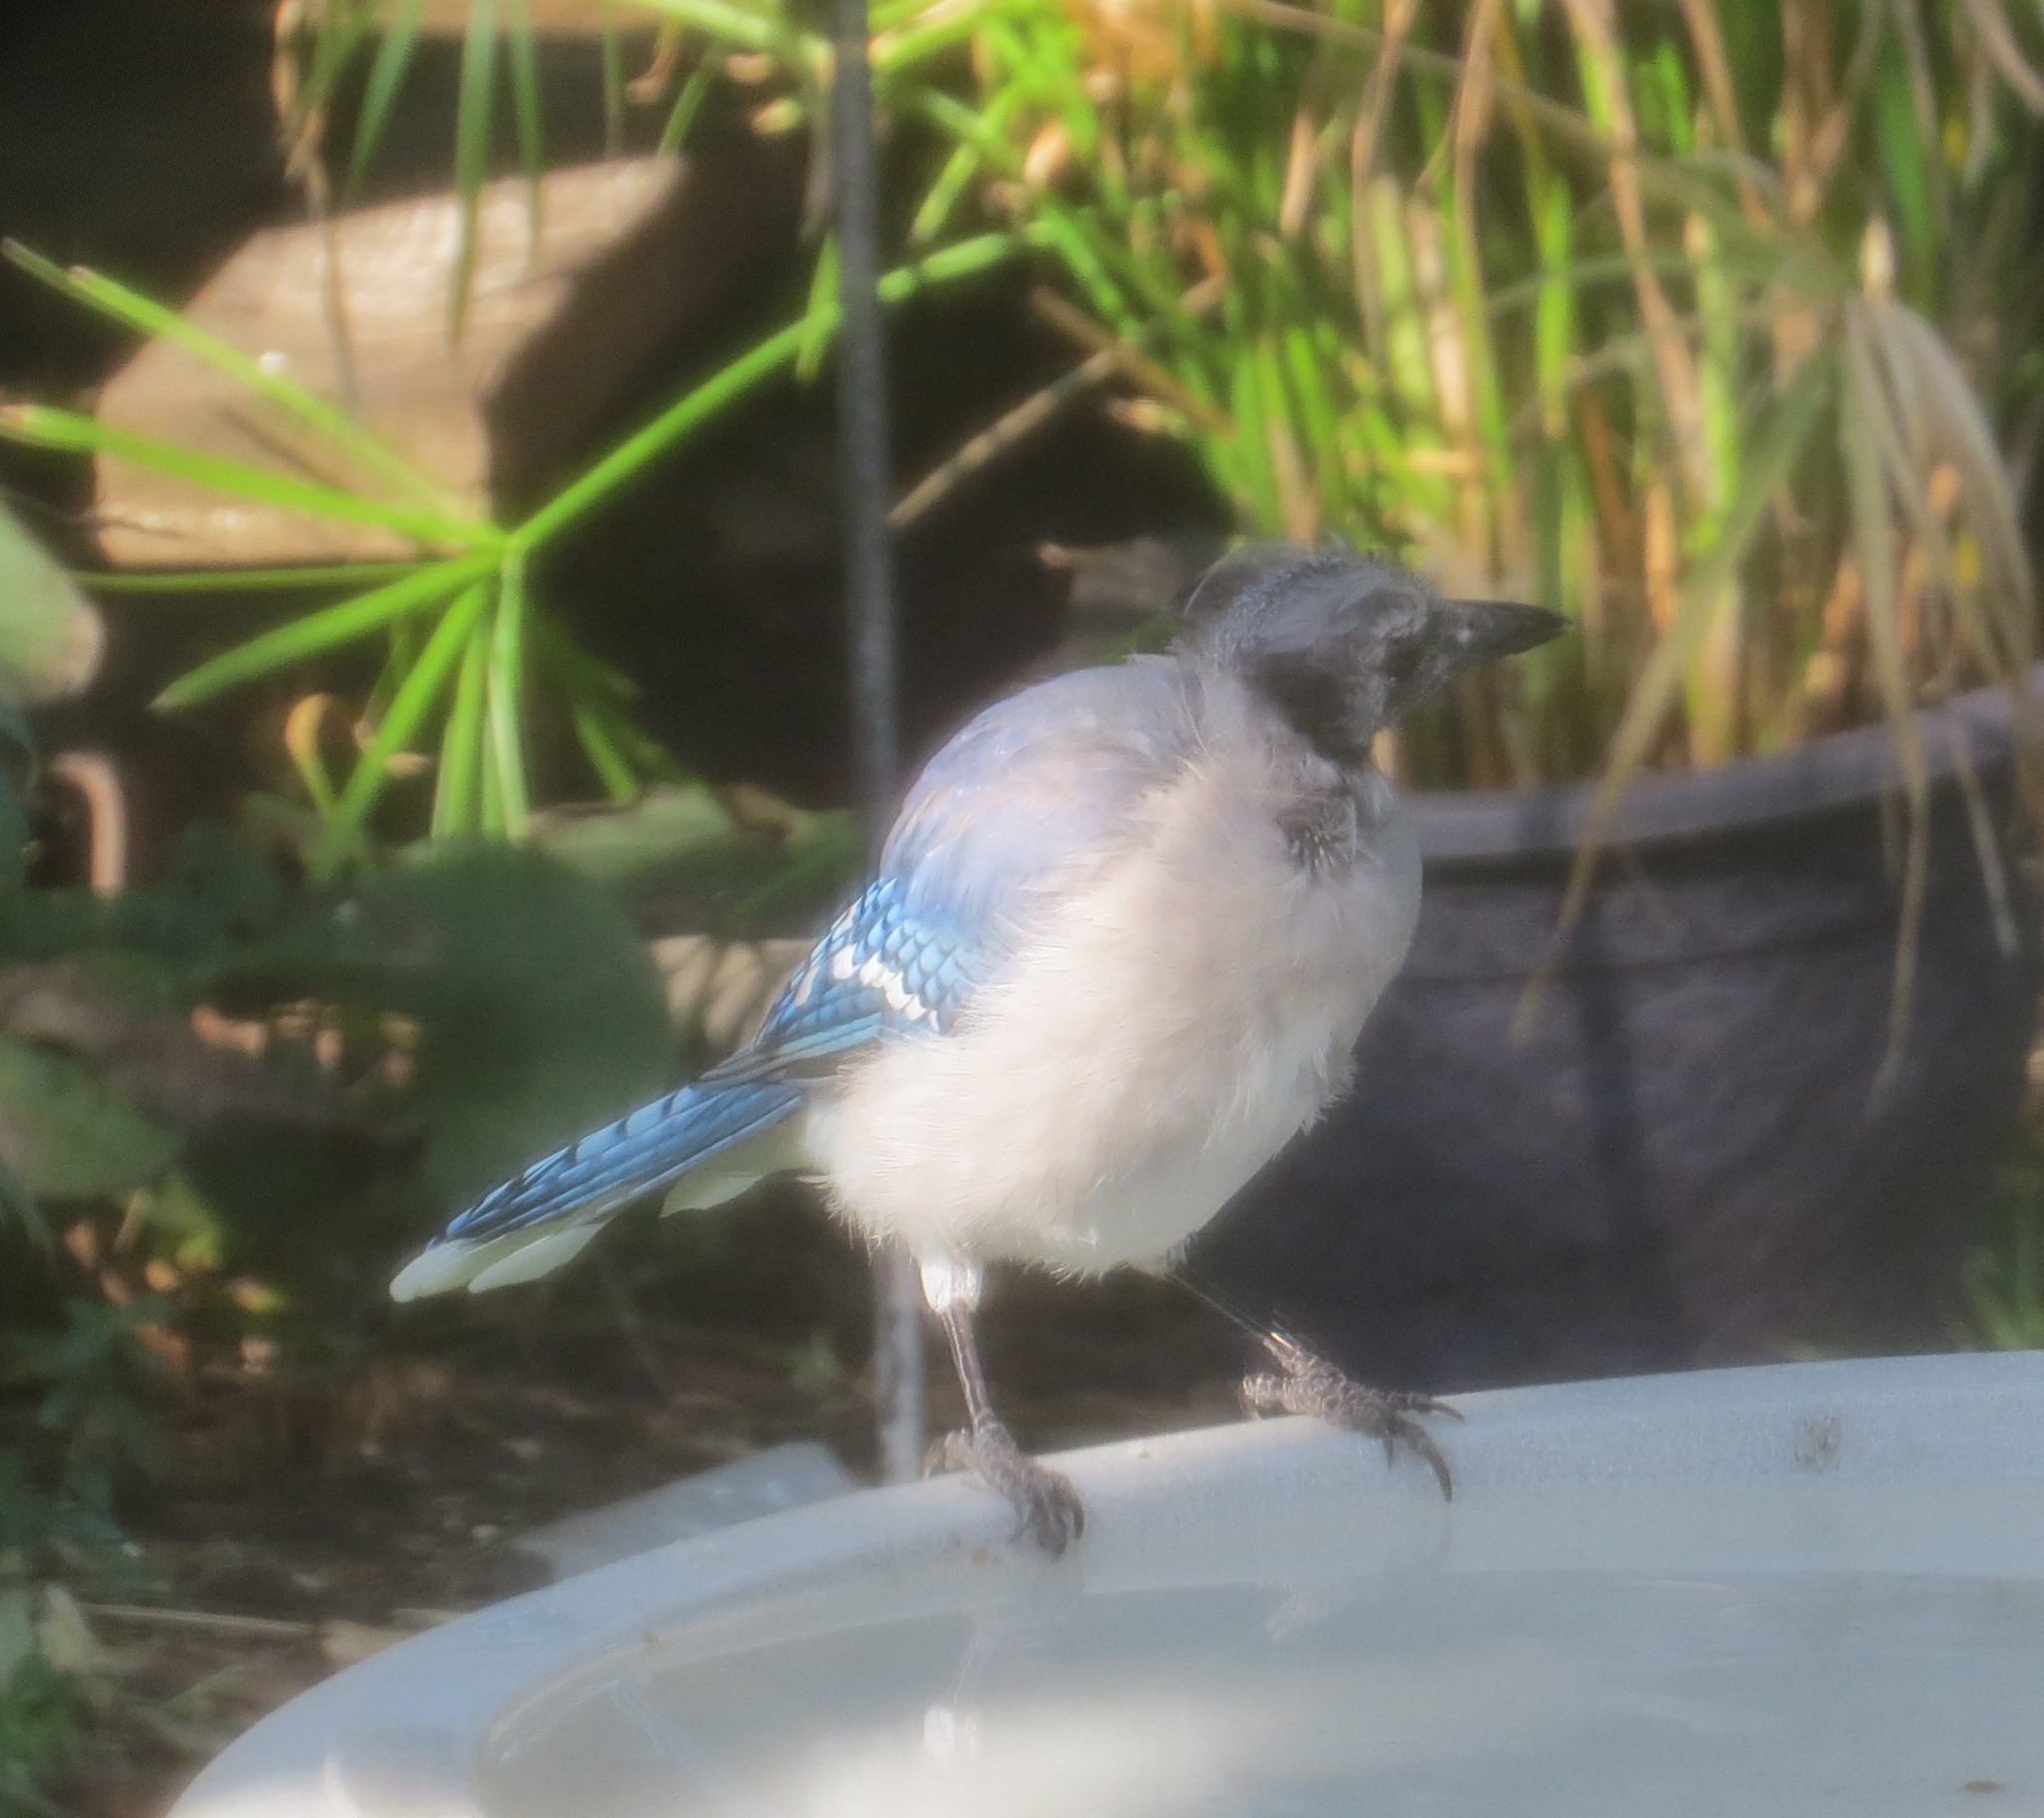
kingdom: Animalia
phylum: Chordata
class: Aves
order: Passeriformes
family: Corvidae
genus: Cyanocitta
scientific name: Cyanocitta cristata
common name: Blue jay
